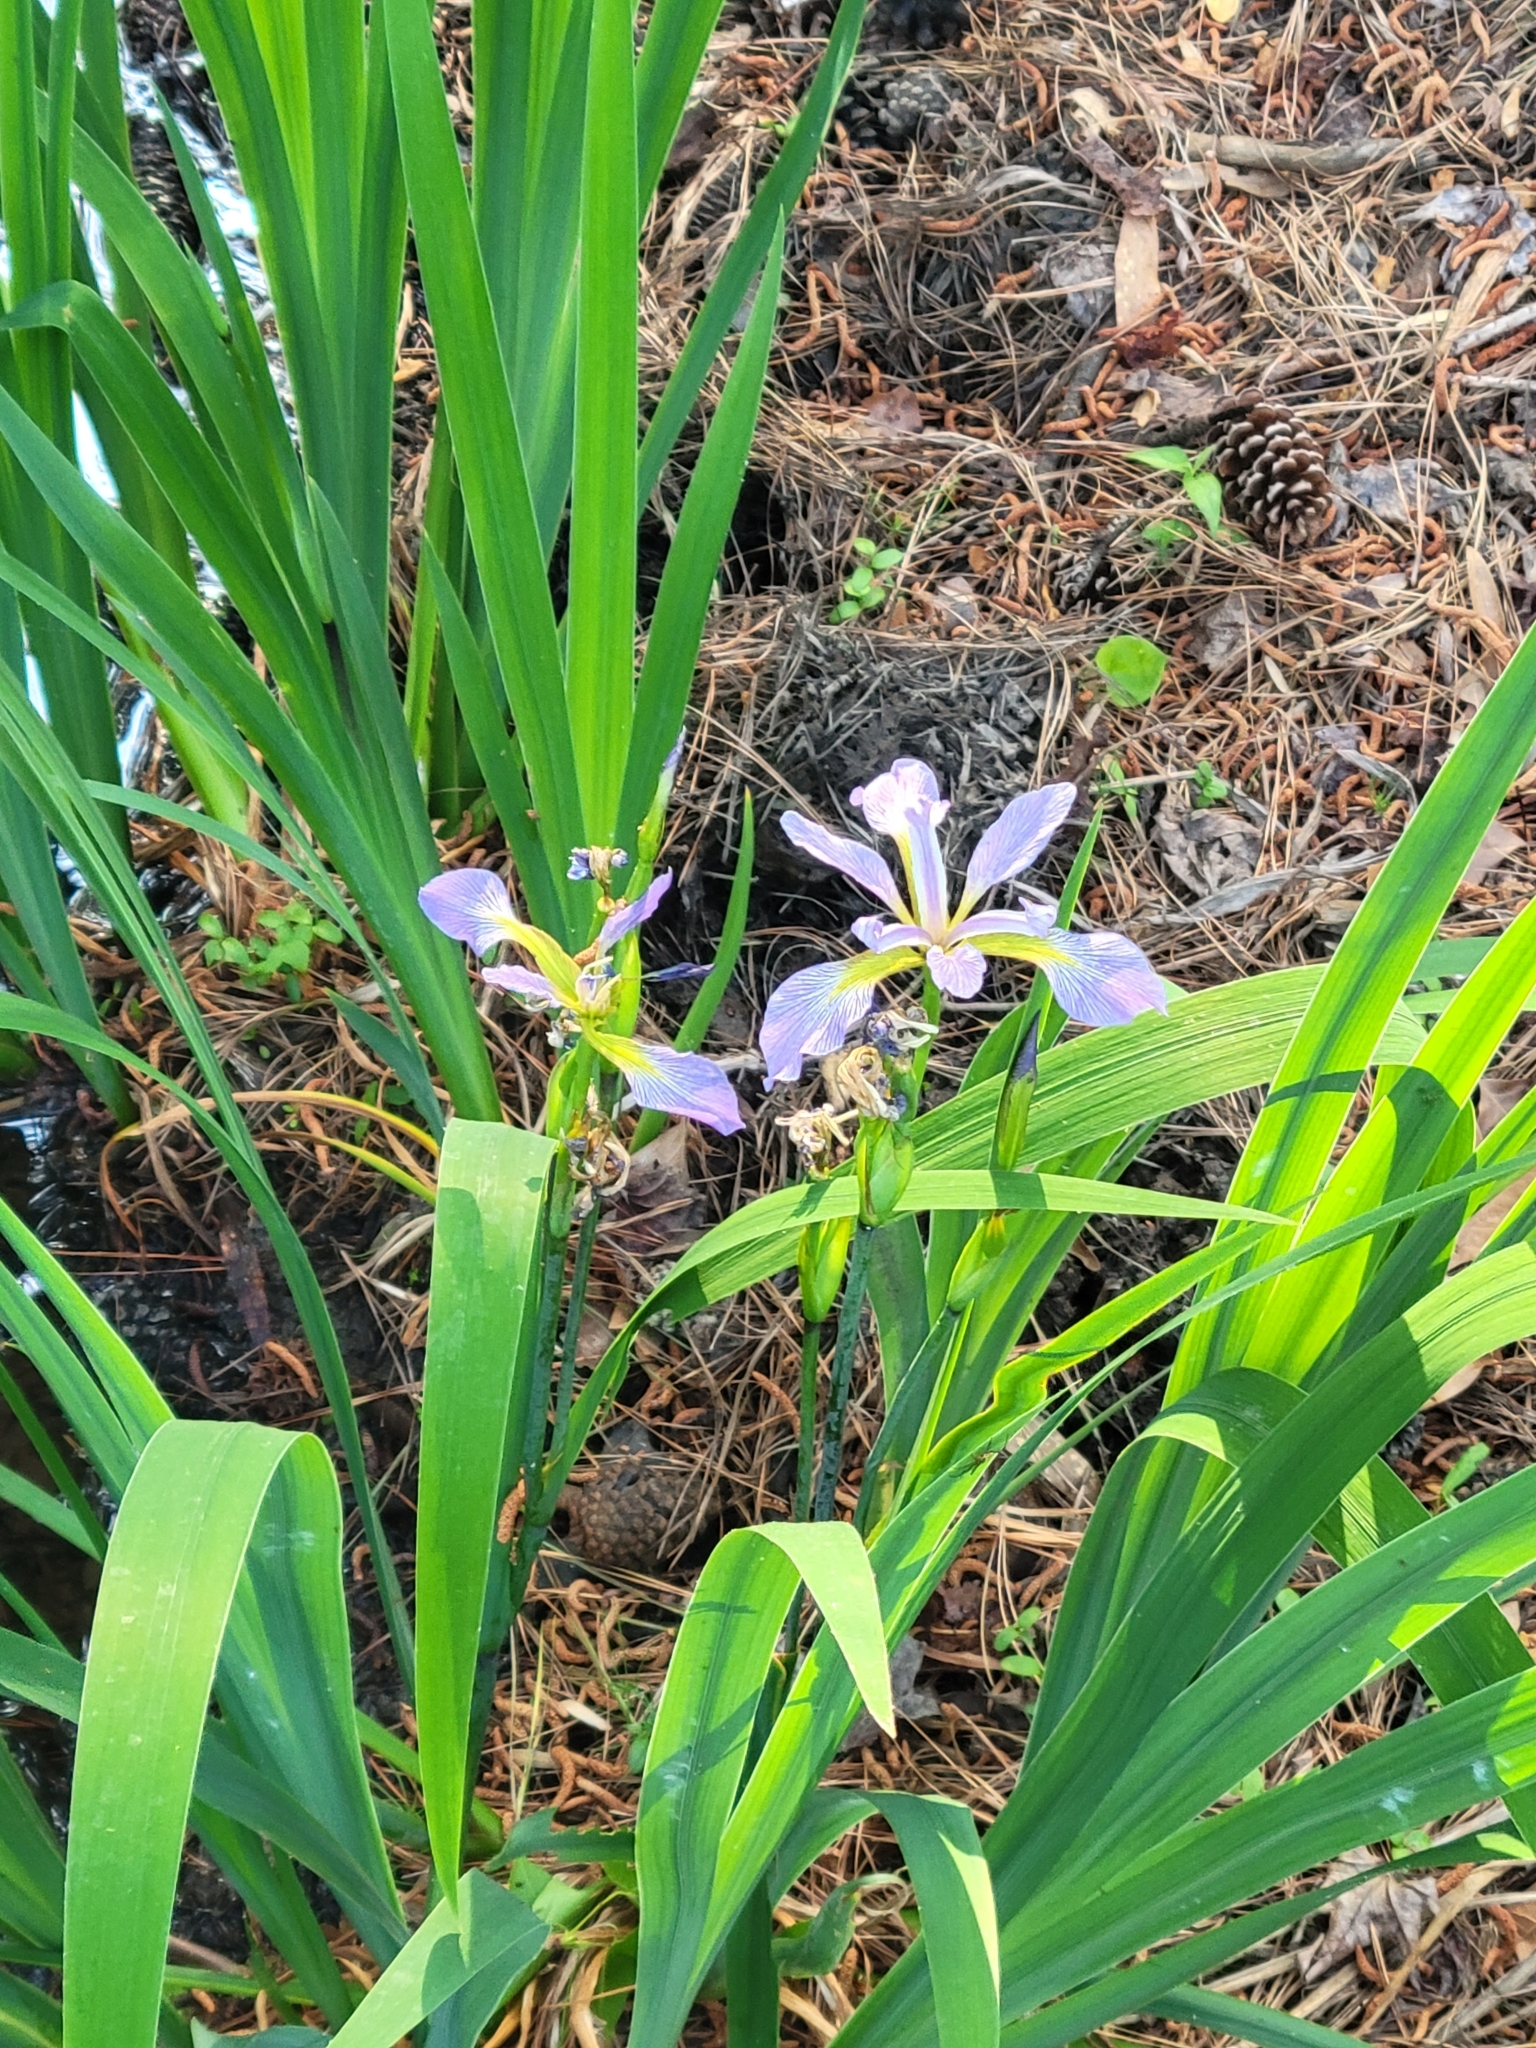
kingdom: Plantae
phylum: Tracheophyta
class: Liliopsida
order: Asparagales
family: Iridaceae
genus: Iris
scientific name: Iris virginica
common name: Southern blue flag
